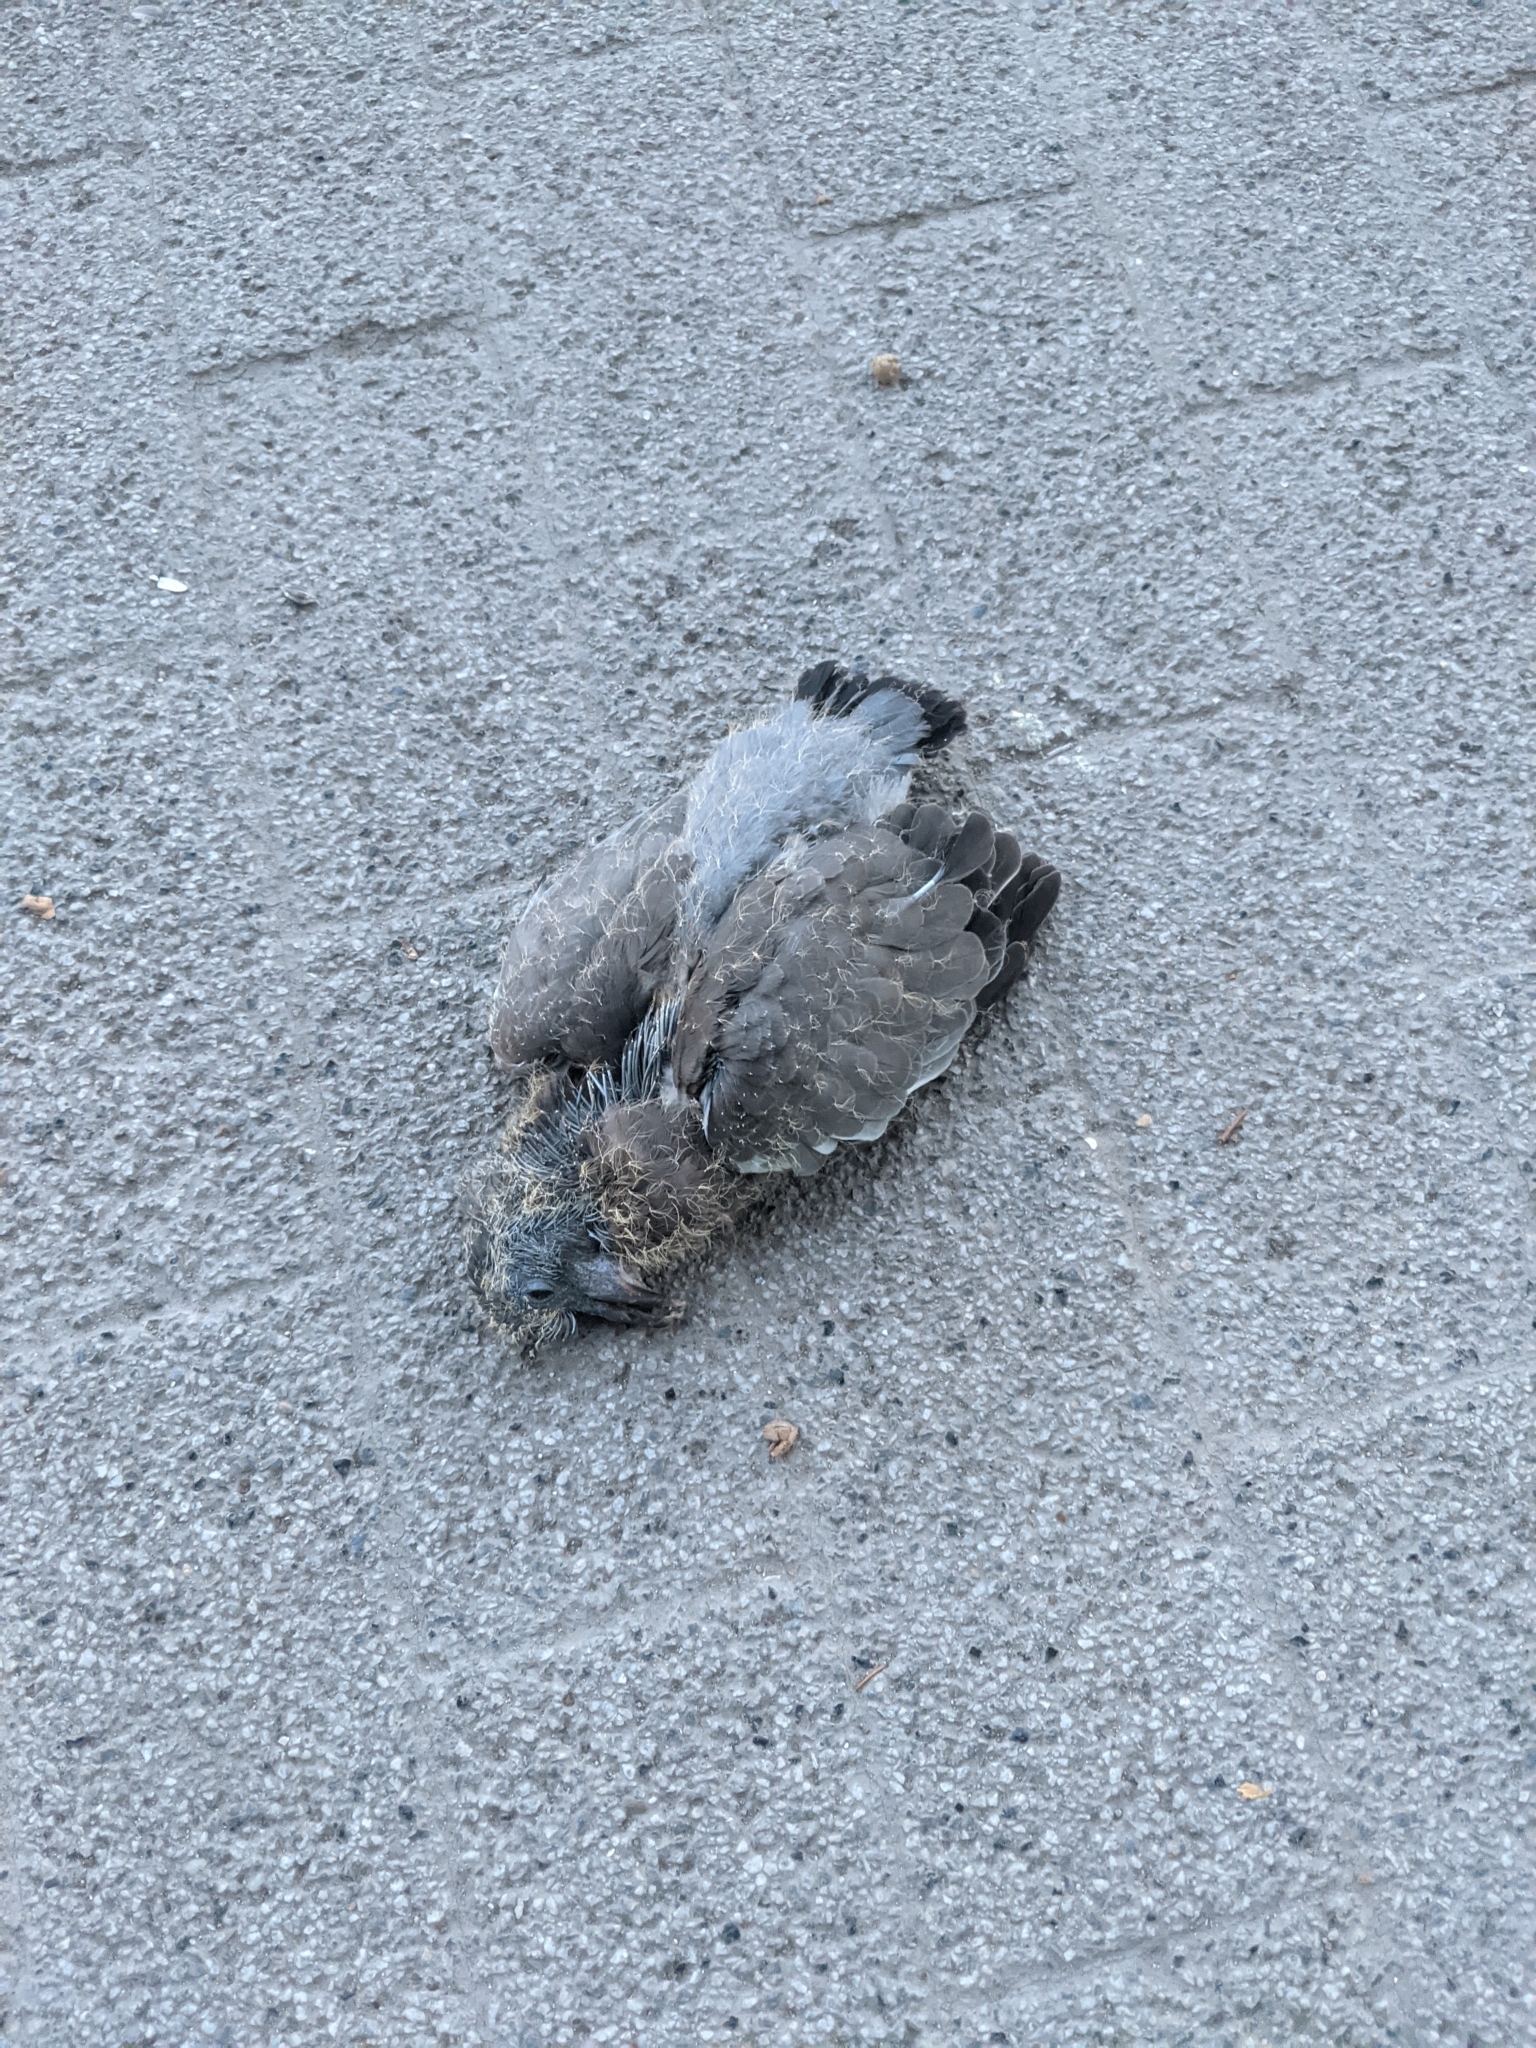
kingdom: Animalia
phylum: Chordata
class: Aves
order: Columbiformes
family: Columbidae
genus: Columba
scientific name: Columba palumbus
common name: Common wood pigeon
